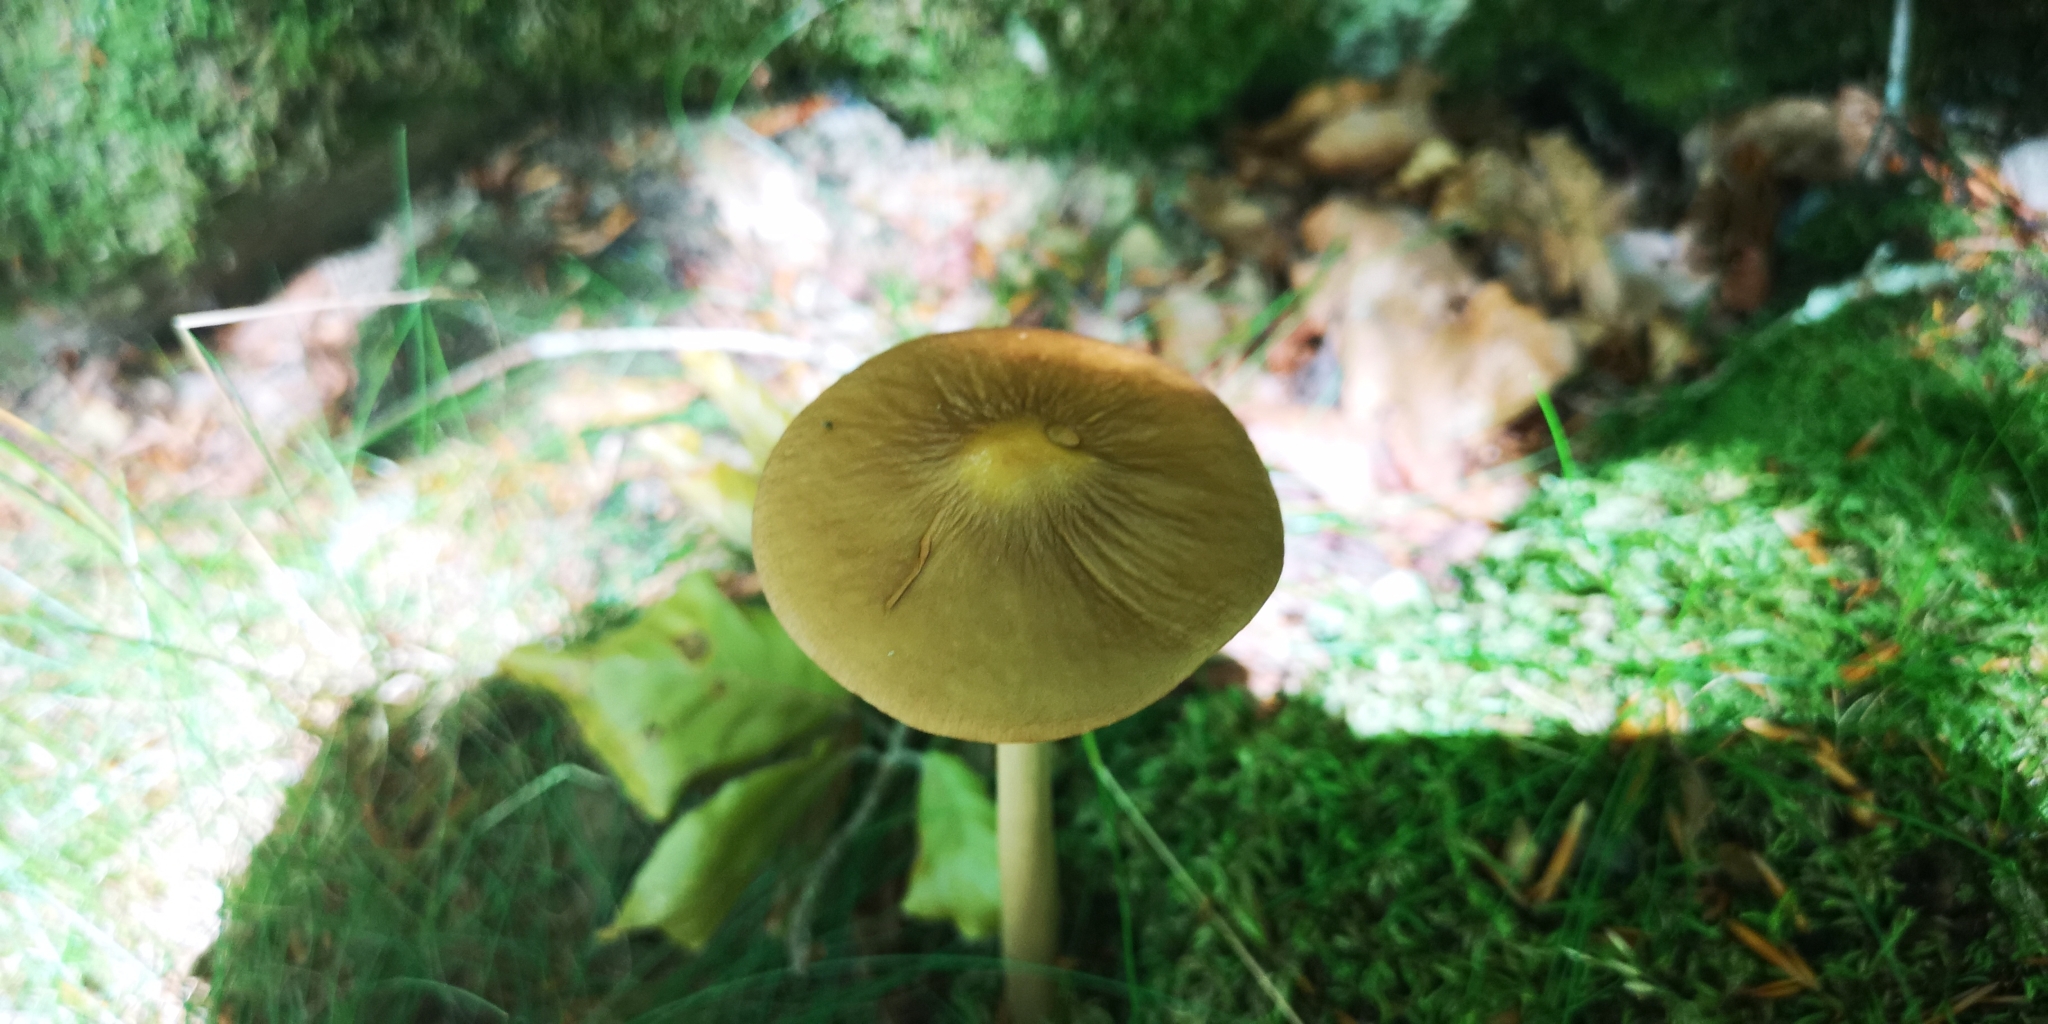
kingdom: Fungi
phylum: Basidiomycota
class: Agaricomycetes
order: Agaricales
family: Physalacriaceae
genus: Hymenopellis
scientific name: Hymenopellis radicata
